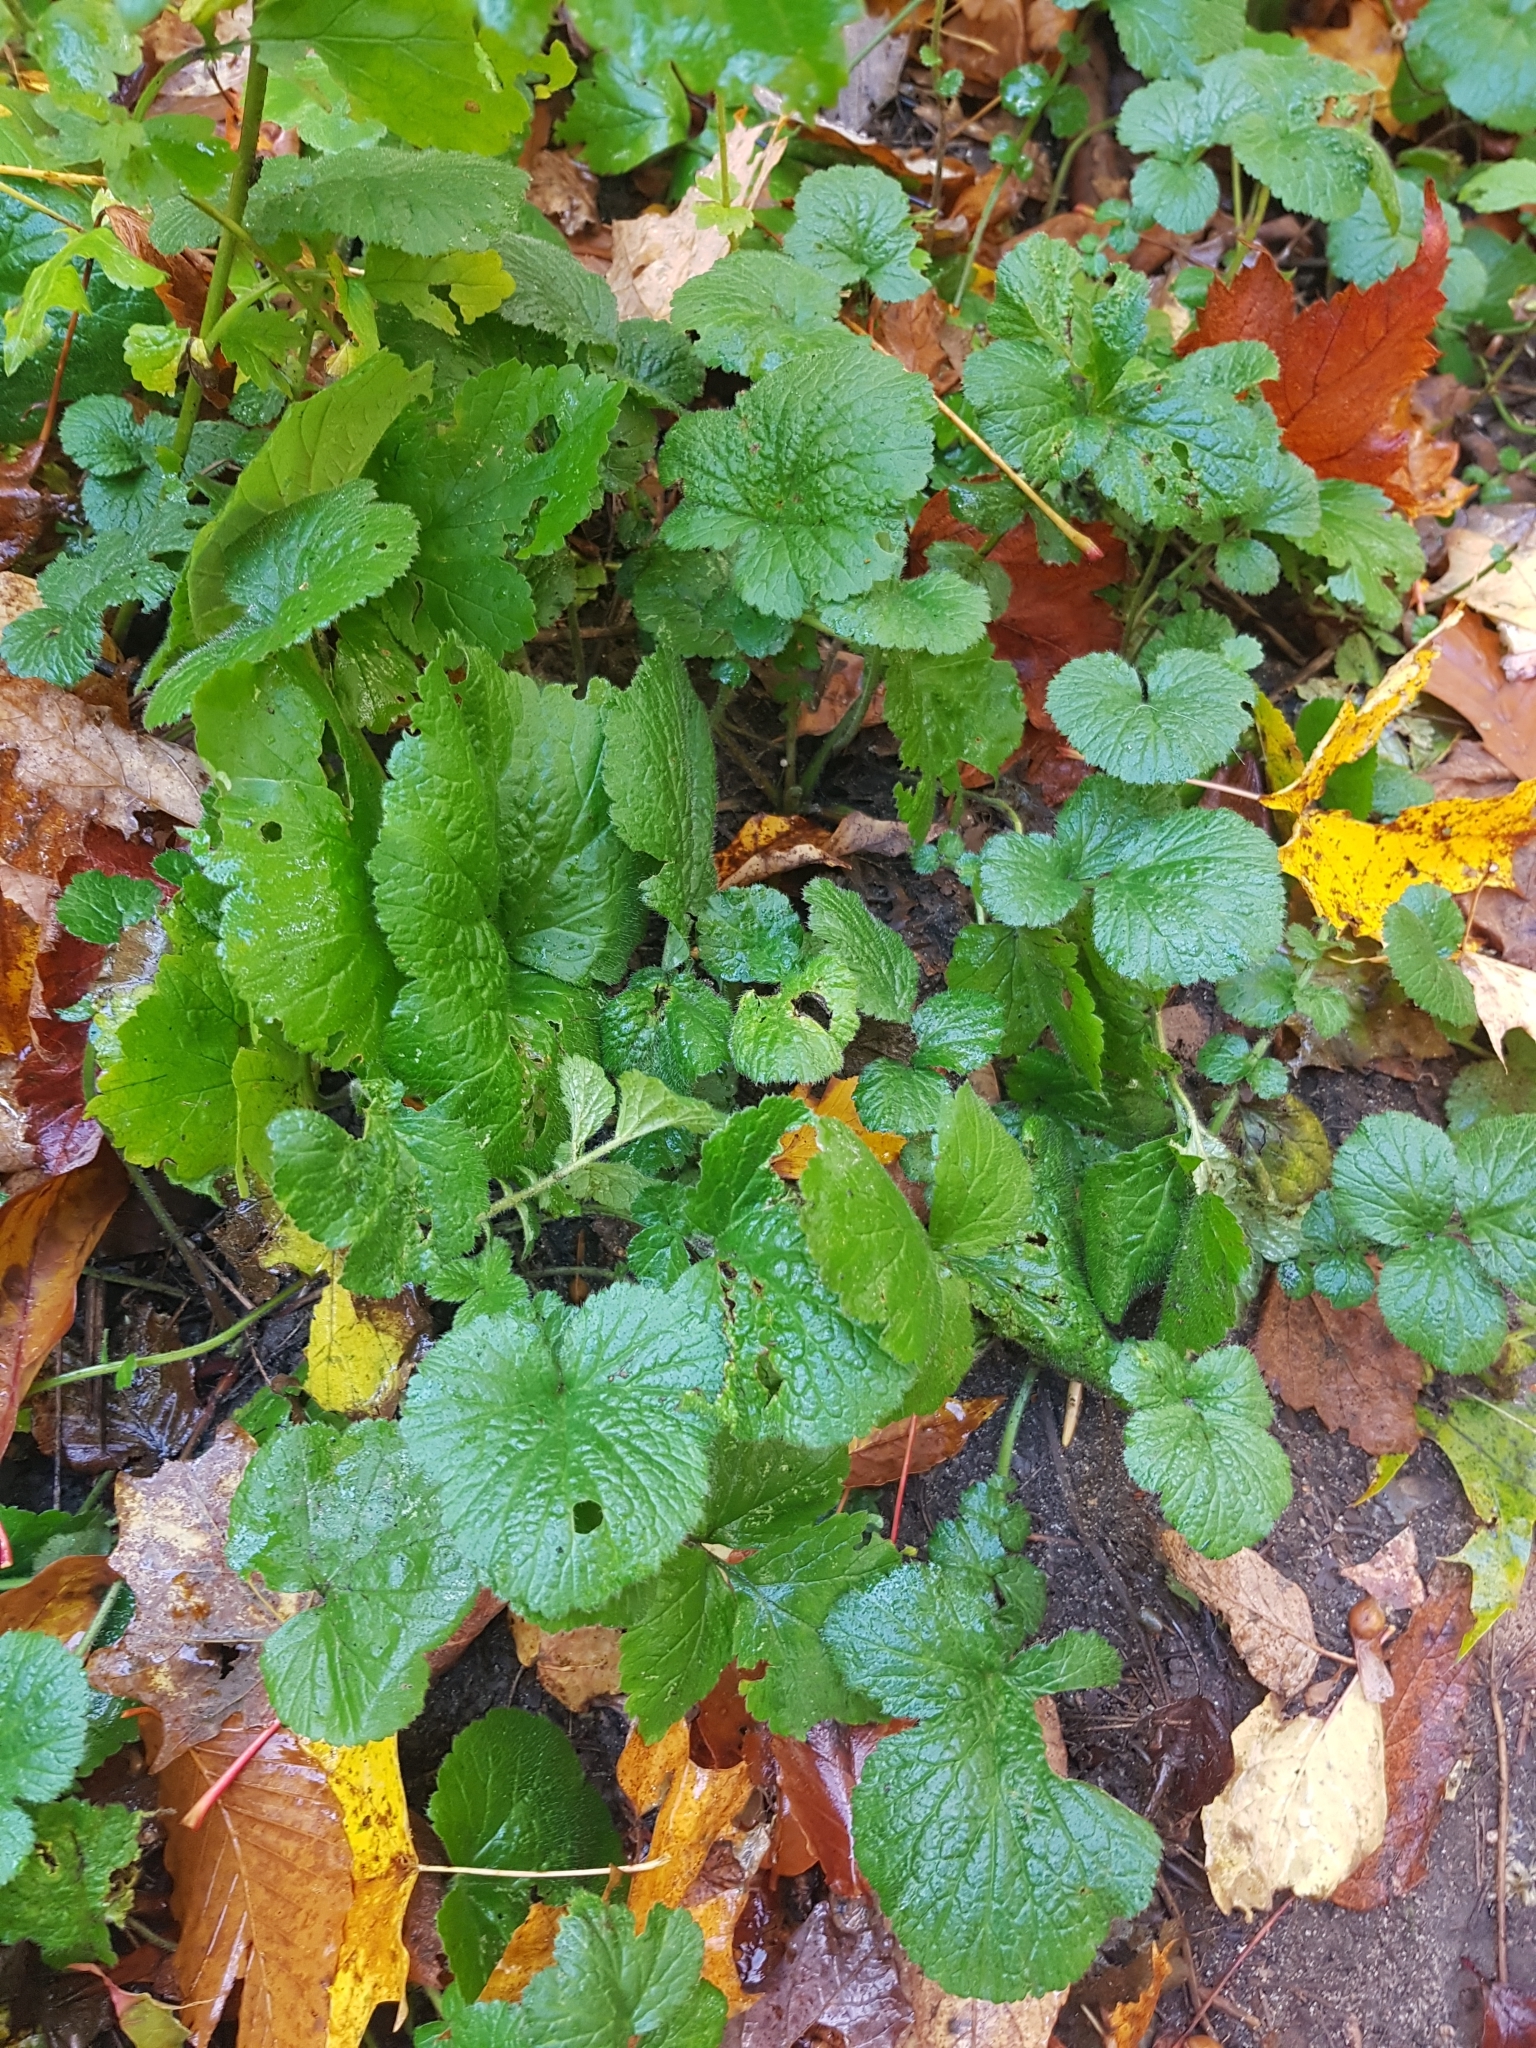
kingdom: Plantae
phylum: Tracheophyta
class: Magnoliopsida
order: Brassicales
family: Brassicaceae
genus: Alliaria
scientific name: Alliaria petiolata
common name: Garlic mustard
